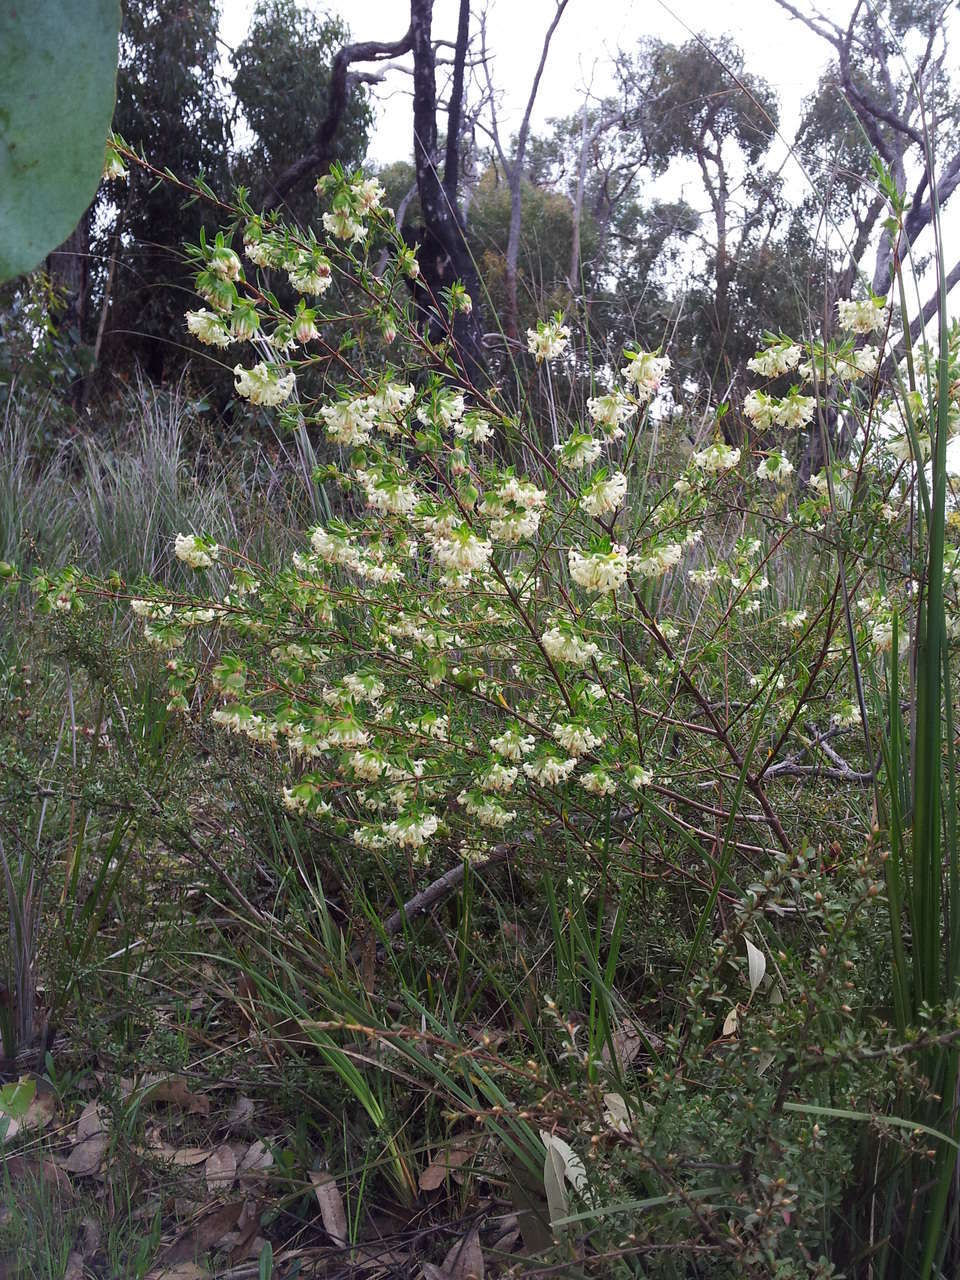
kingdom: Plantae
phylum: Tracheophyta
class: Magnoliopsida
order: Malvales
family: Thymelaeaceae
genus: Pimelea
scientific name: Pimelea linifolia
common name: Queen-of-the-bush
